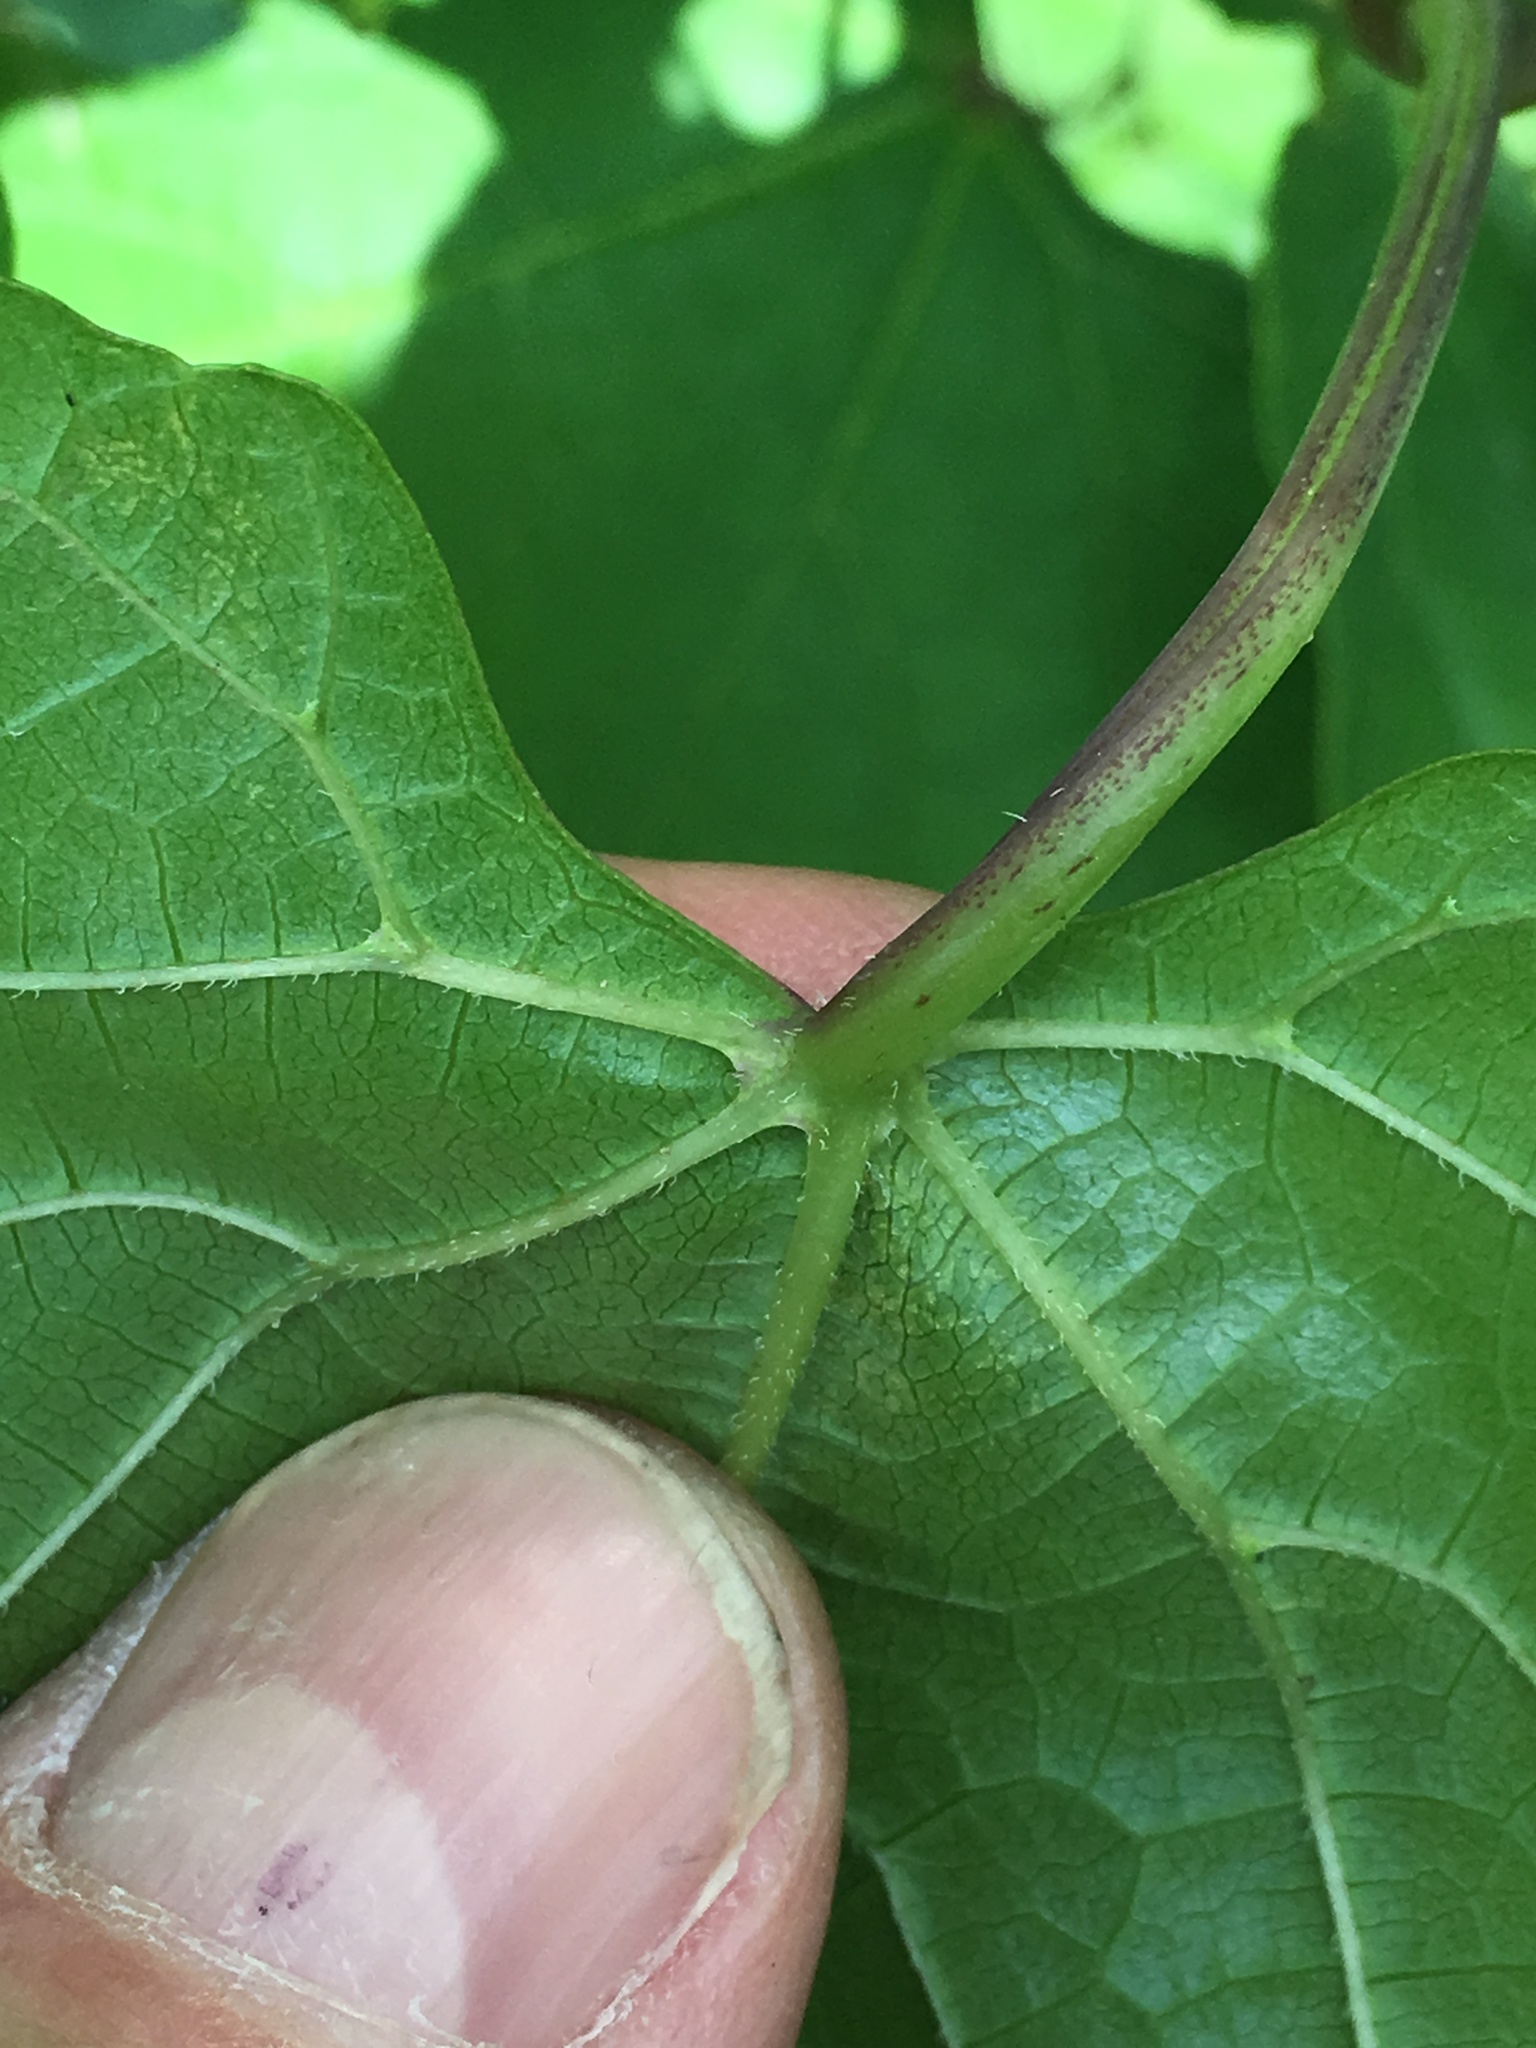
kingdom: Plantae
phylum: Tracheophyta
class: Magnoliopsida
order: Vitales
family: Vitaceae
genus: Ampelopsis
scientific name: Ampelopsis glandulosa
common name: Amur peppervine
